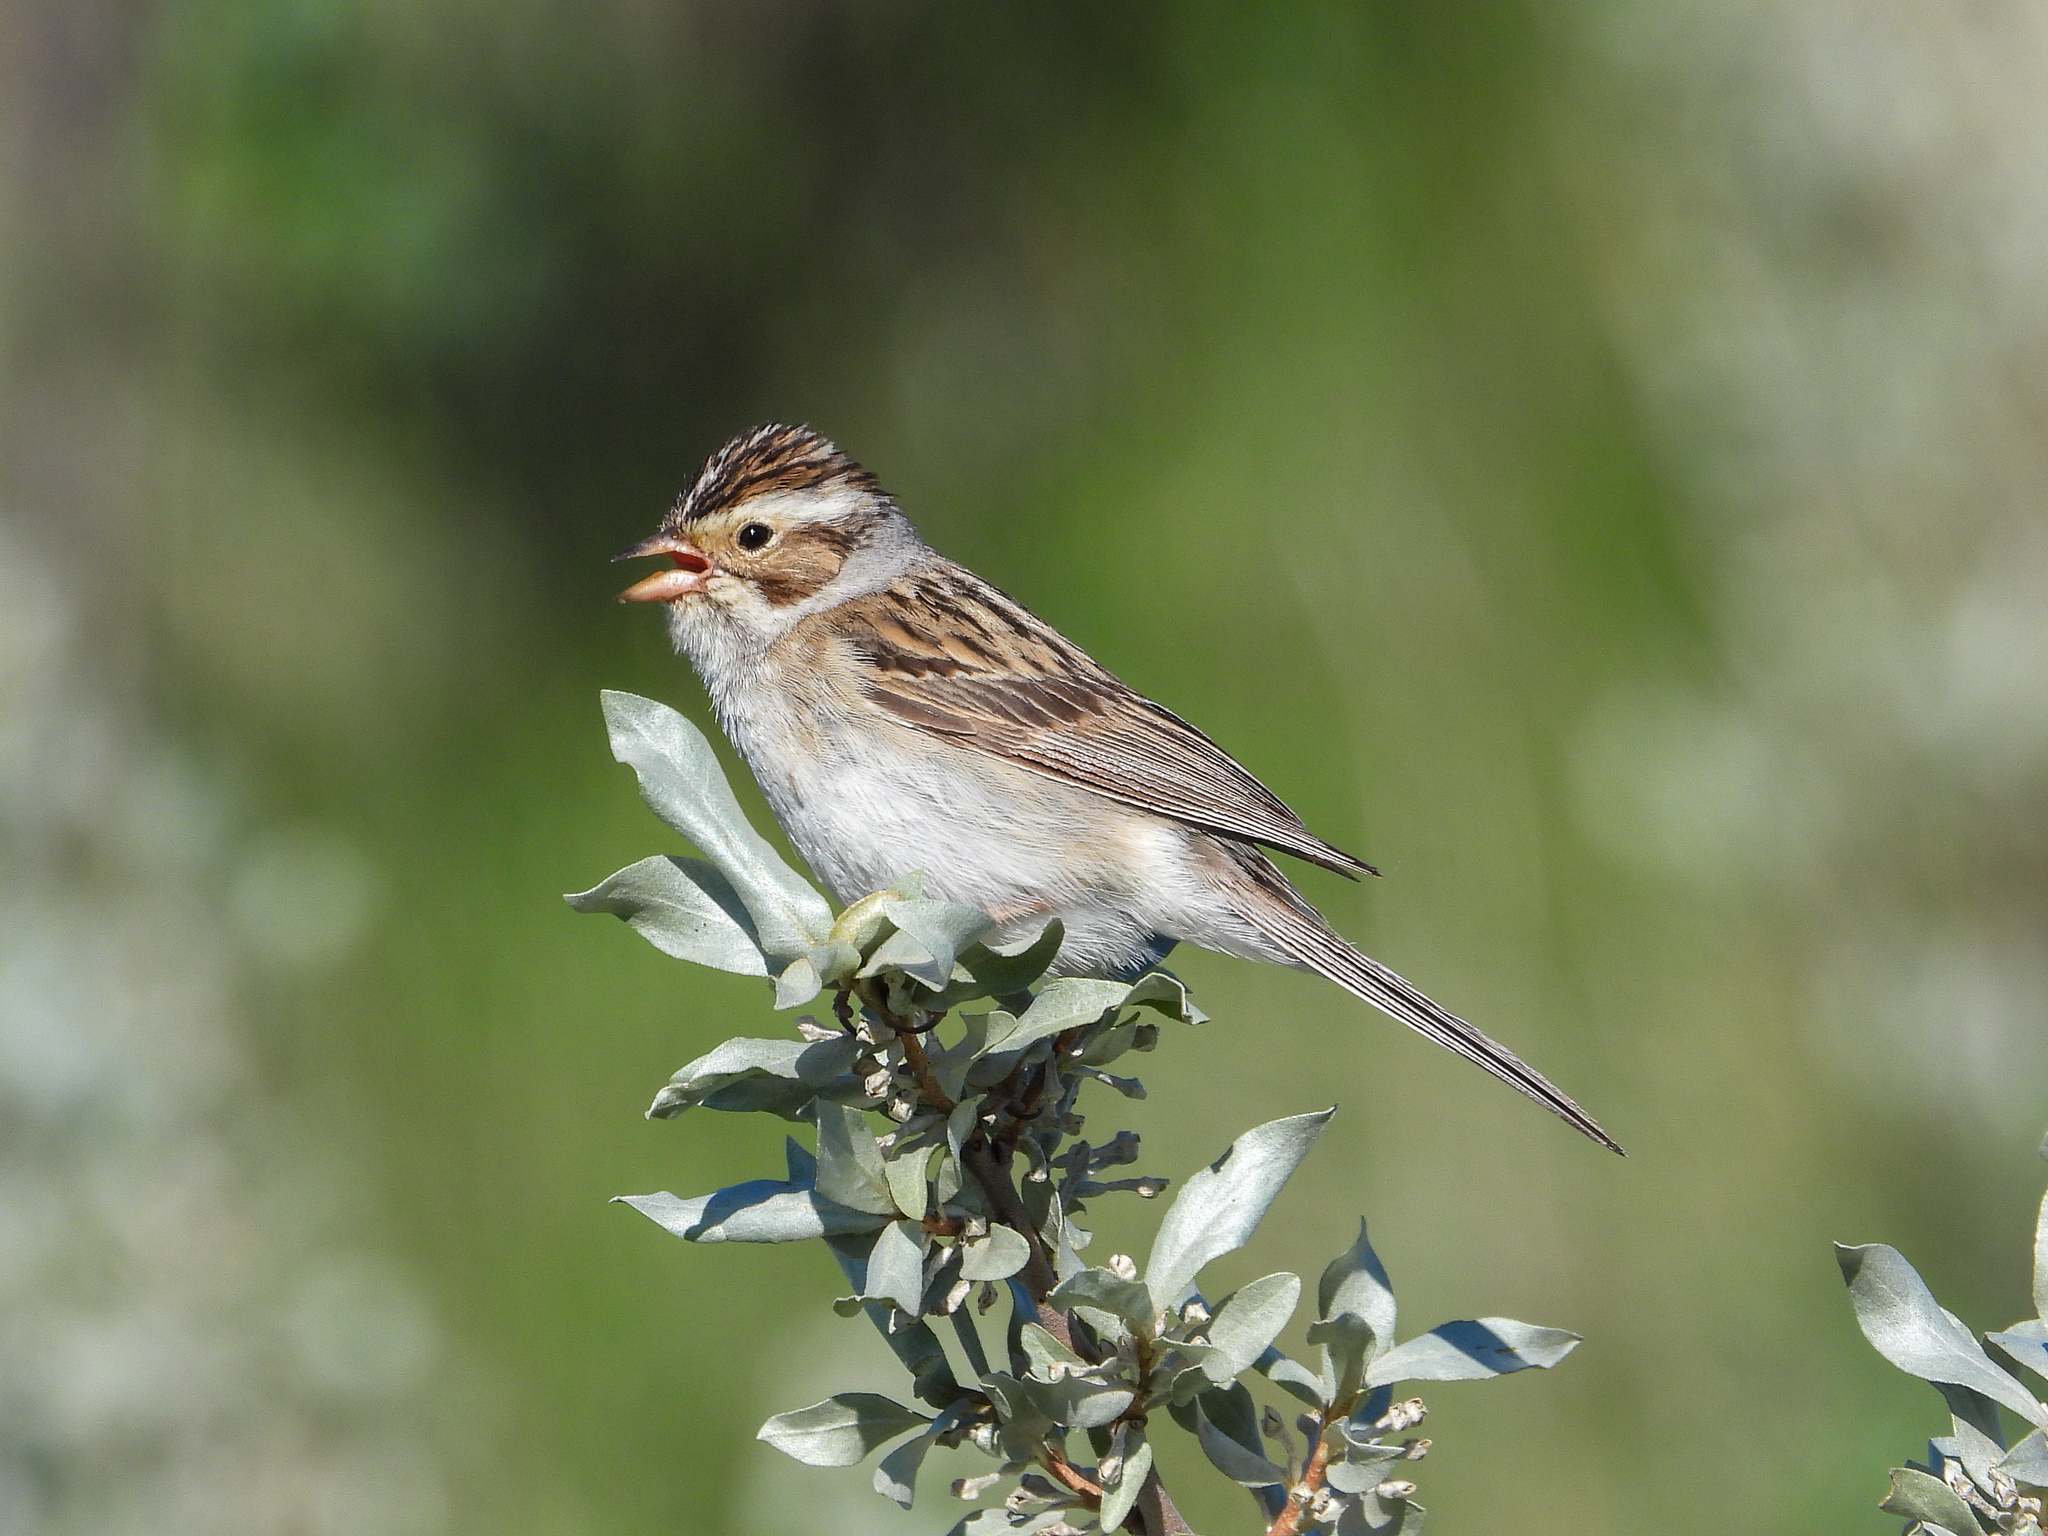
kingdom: Animalia
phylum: Chordata
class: Aves
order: Passeriformes
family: Passerellidae
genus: Spizella
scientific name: Spizella pallida
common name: Clay-colored sparrow
